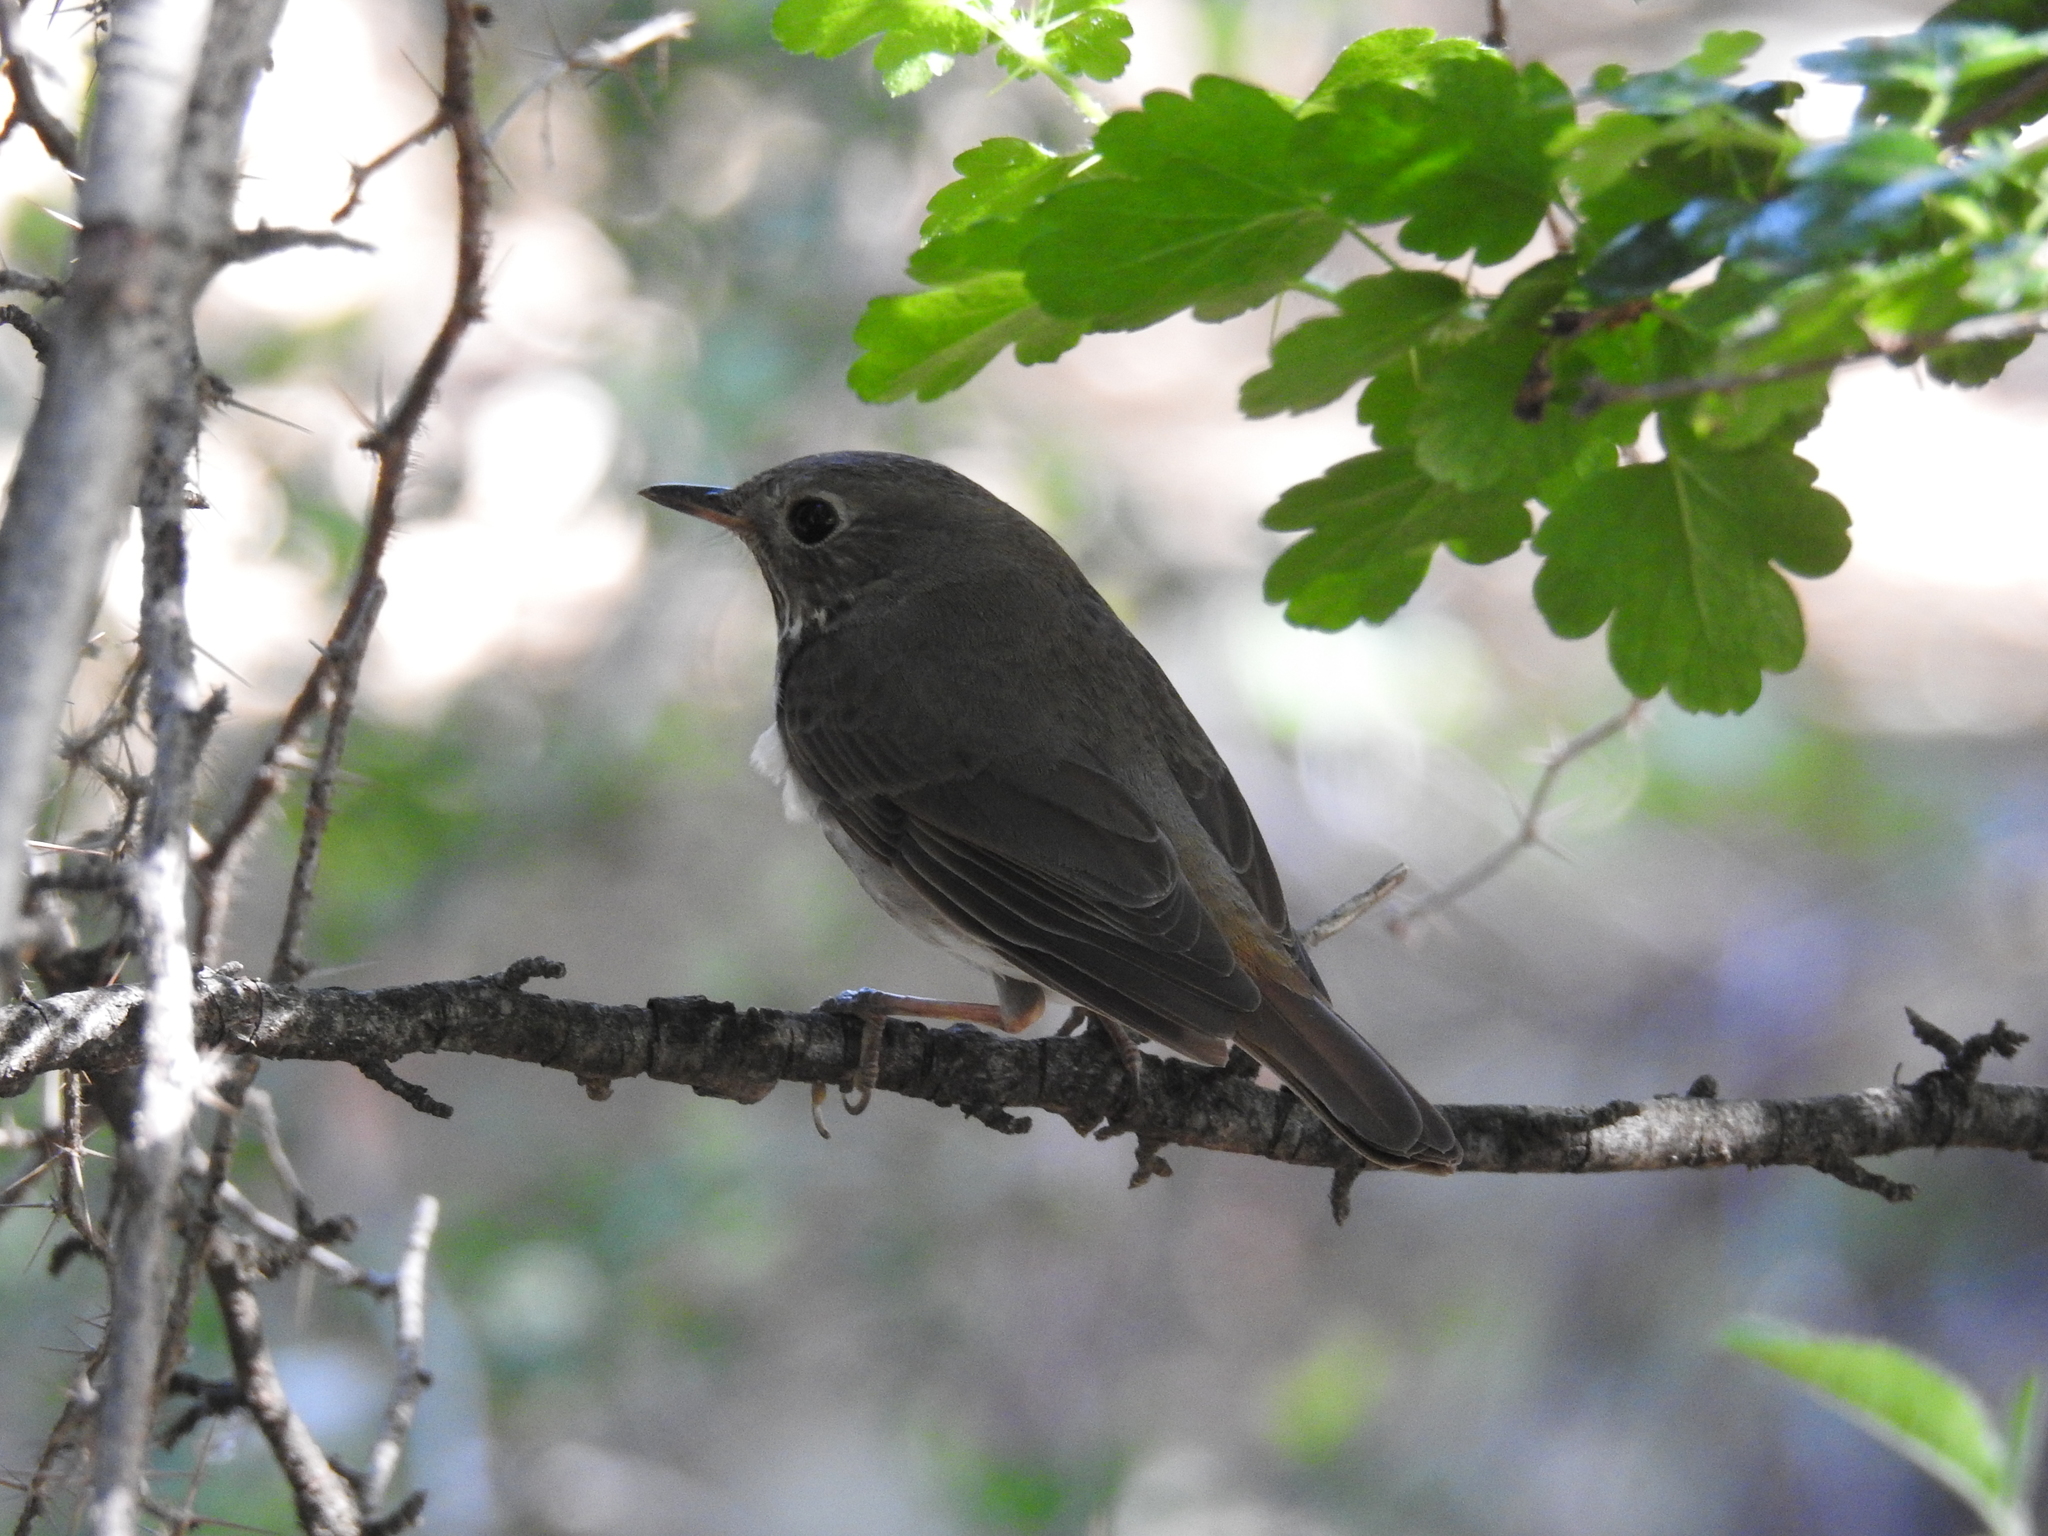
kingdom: Animalia
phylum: Chordata
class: Aves
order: Passeriformes
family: Turdidae
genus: Catharus
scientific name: Catharus guttatus
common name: Hermit thrush
